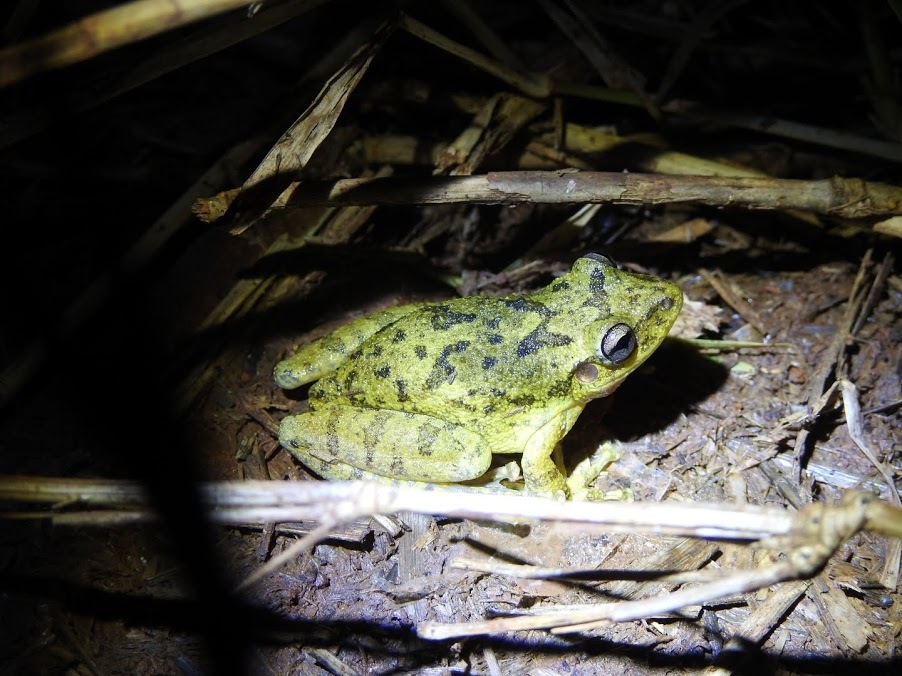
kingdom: Animalia
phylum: Chordata
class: Amphibia
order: Anura
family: Hylidae
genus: Scinax
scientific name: Scinax fuscovarius
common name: Fuscous-blotched treefrog
